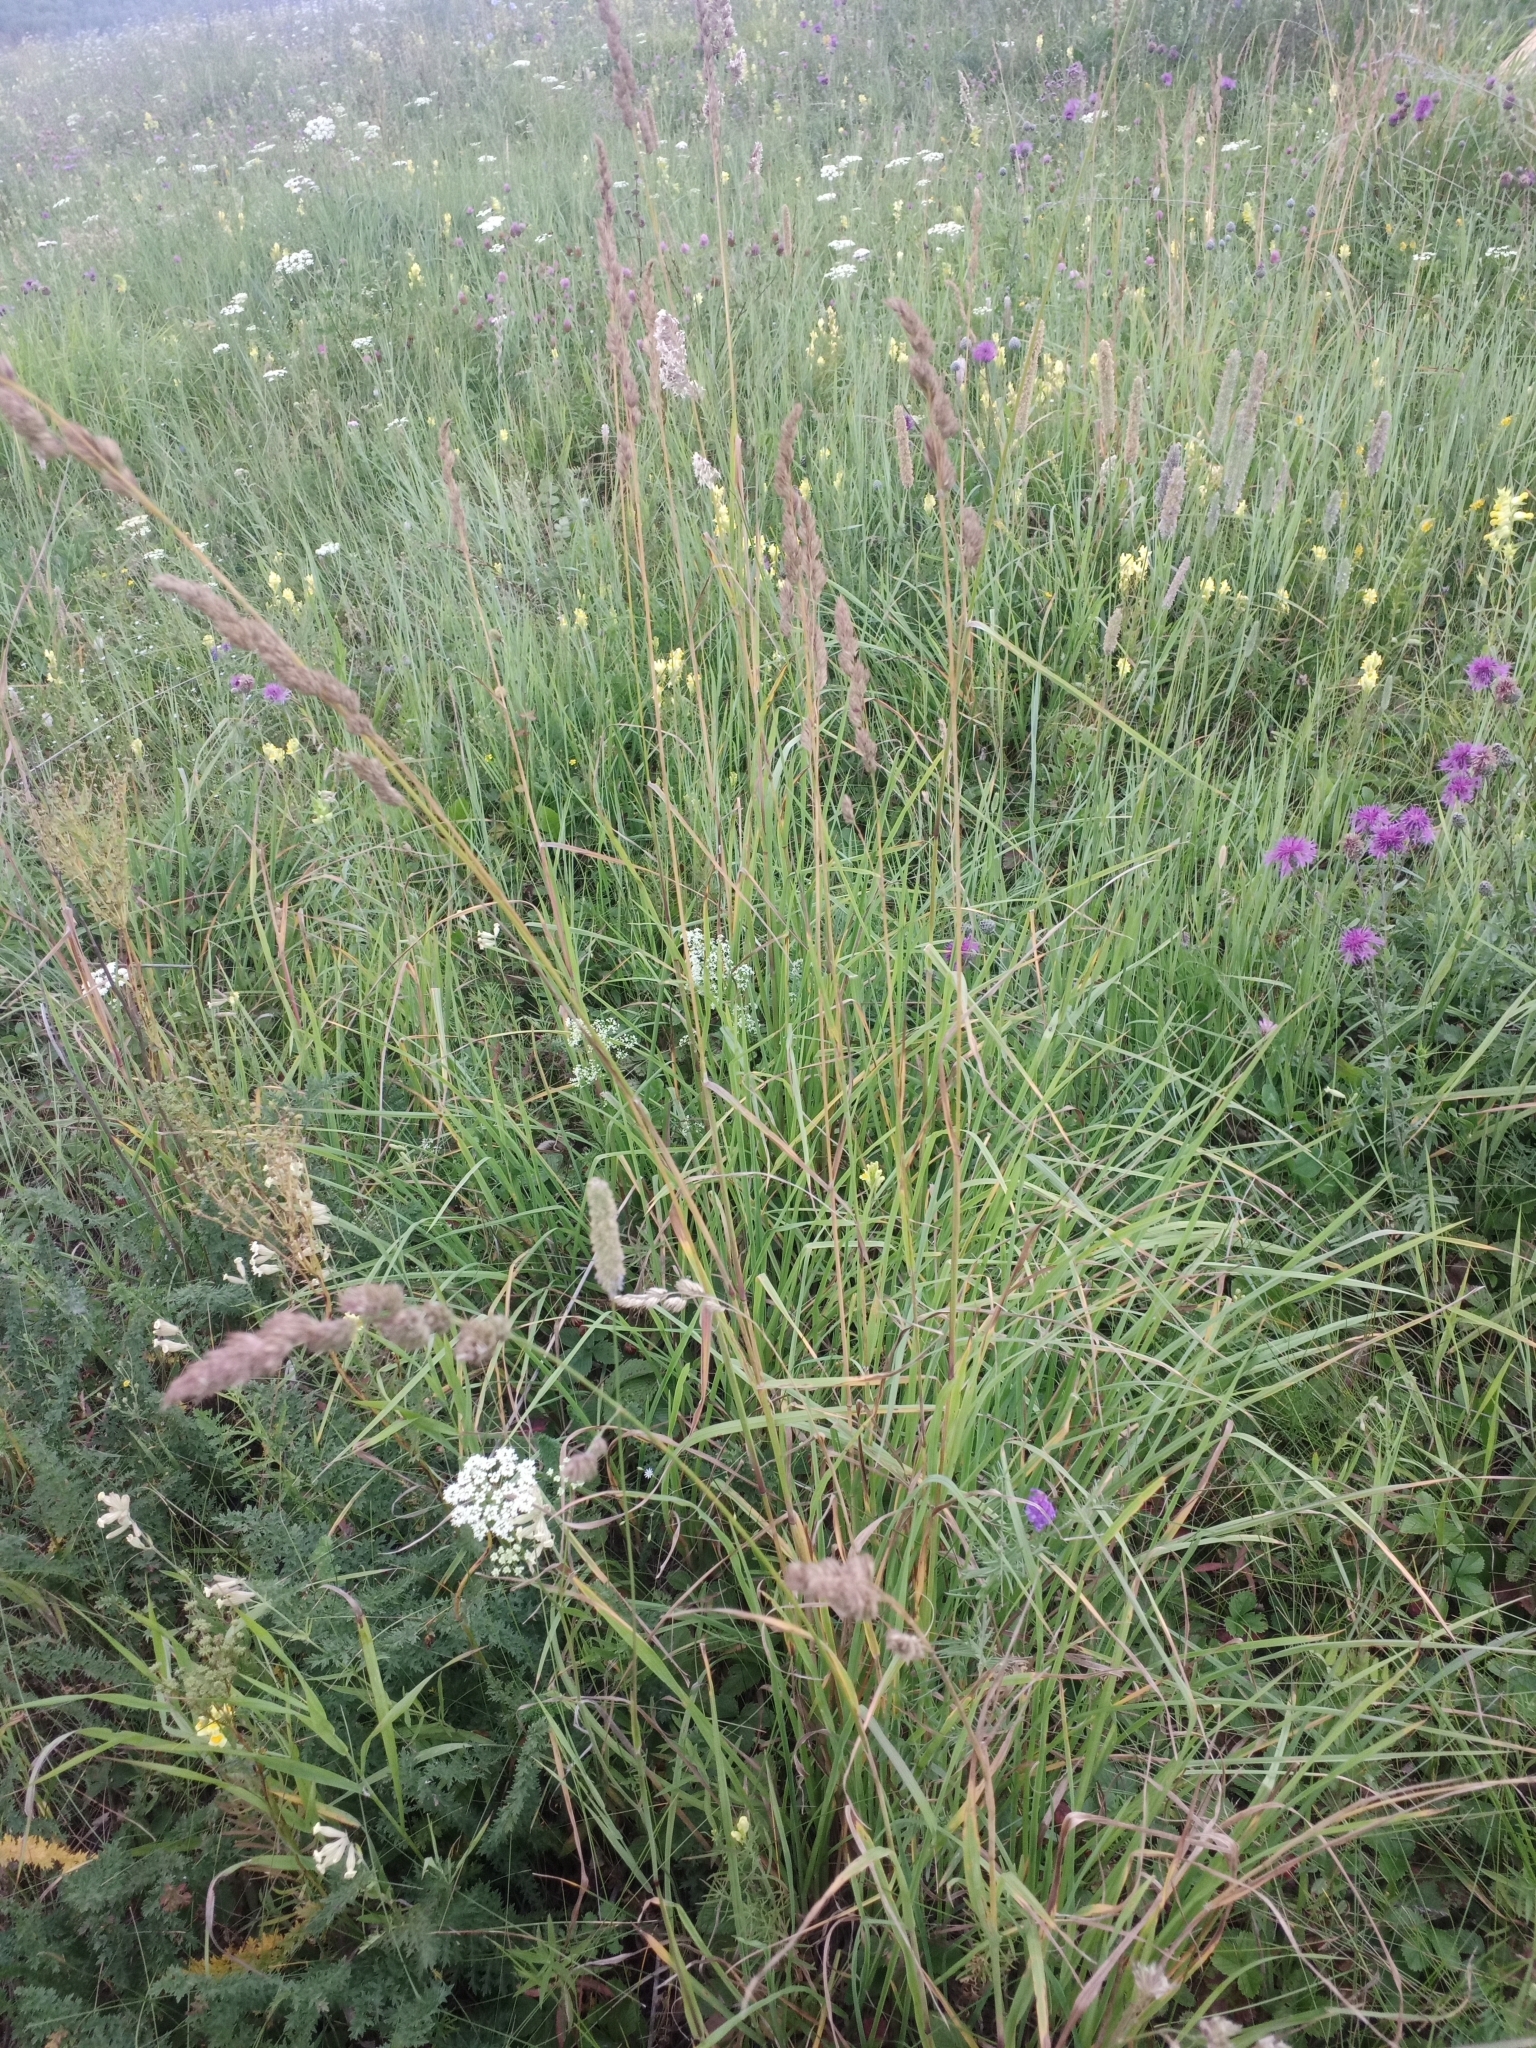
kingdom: Plantae
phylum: Tracheophyta
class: Liliopsida
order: Poales
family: Poaceae
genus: Dactylis
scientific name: Dactylis glomerata
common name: Orchardgrass
